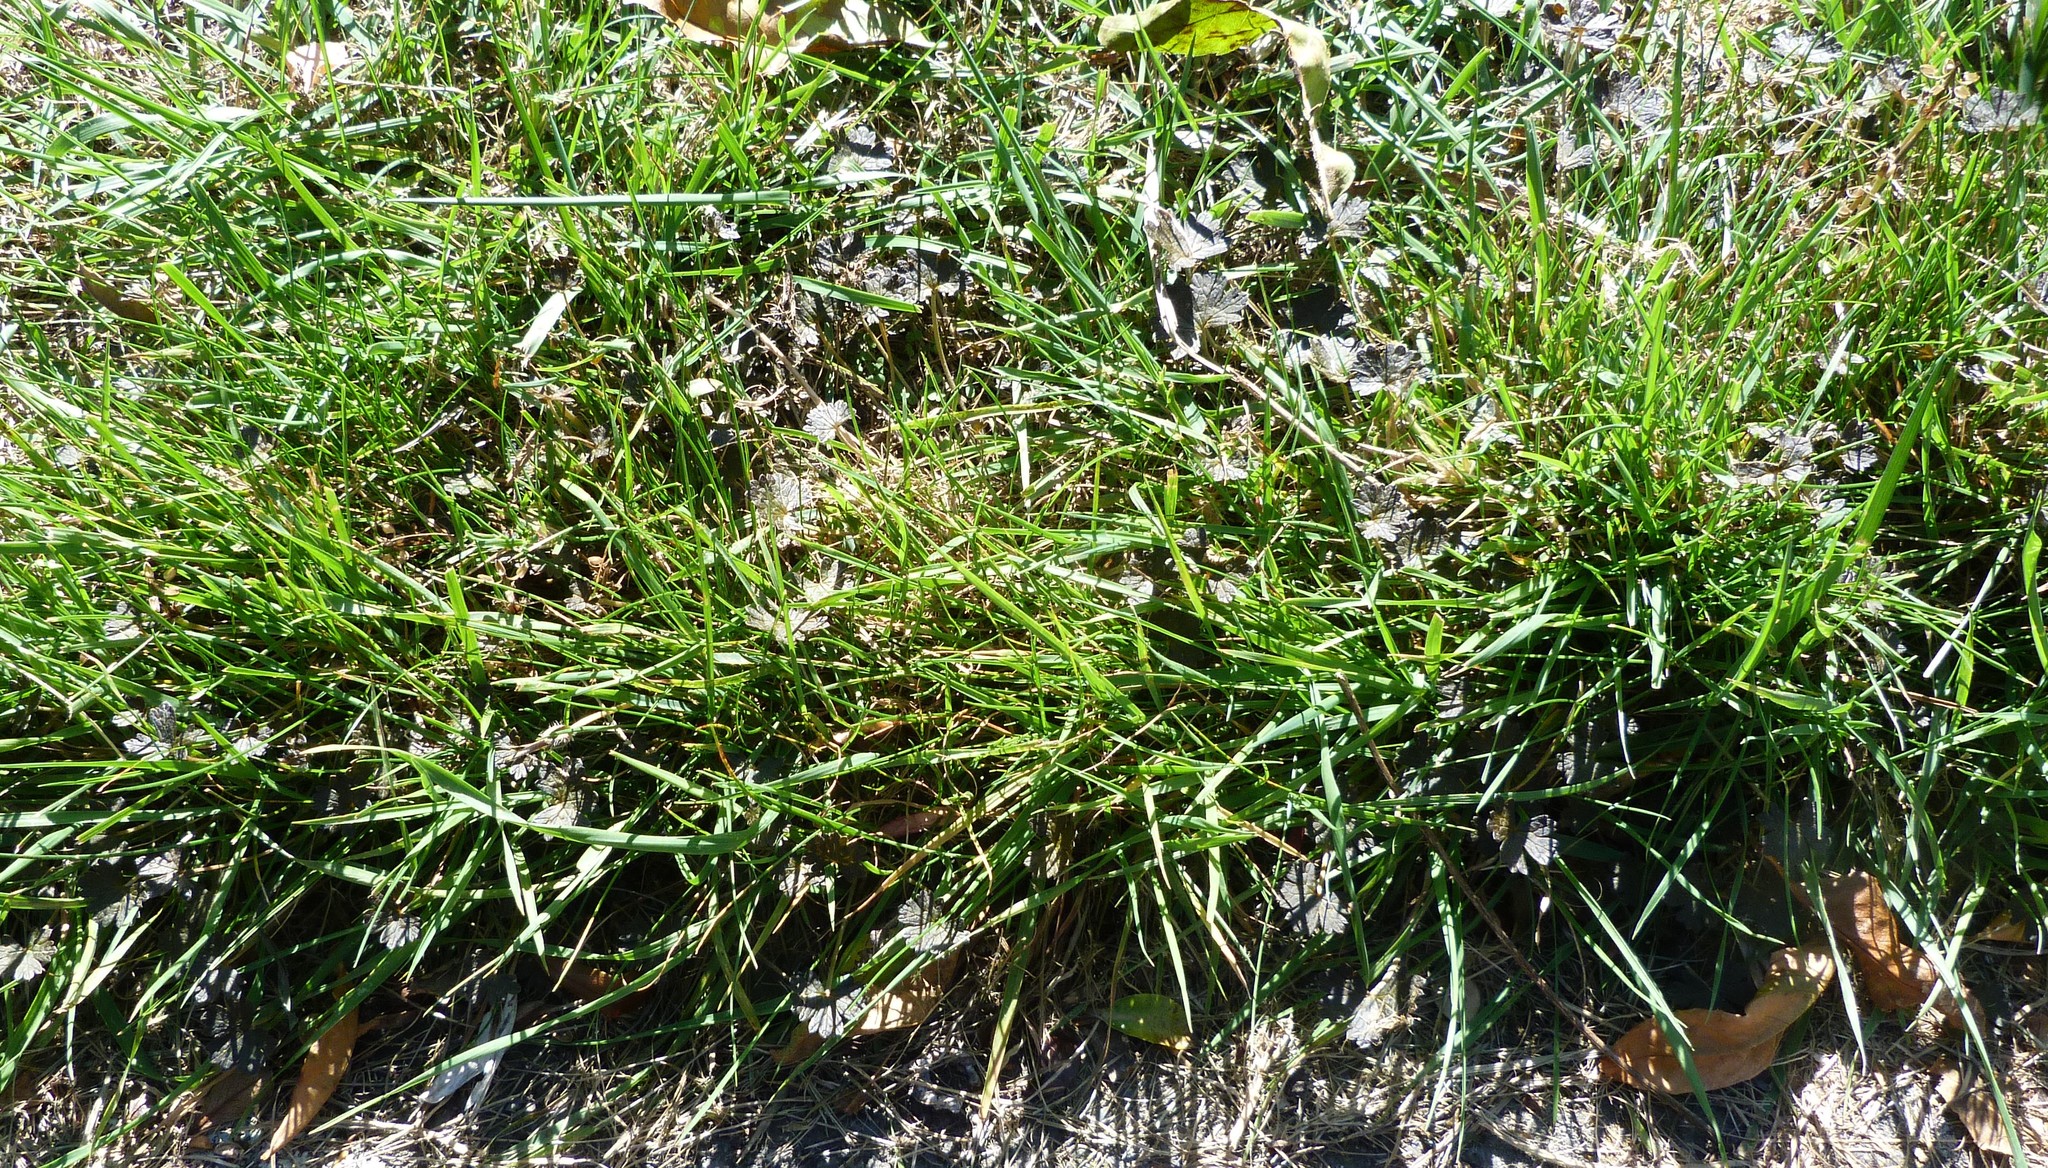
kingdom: Plantae
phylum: Tracheophyta
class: Magnoliopsida
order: Geraniales
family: Geraniaceae
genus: Geranium
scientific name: Geranium brevicaule
